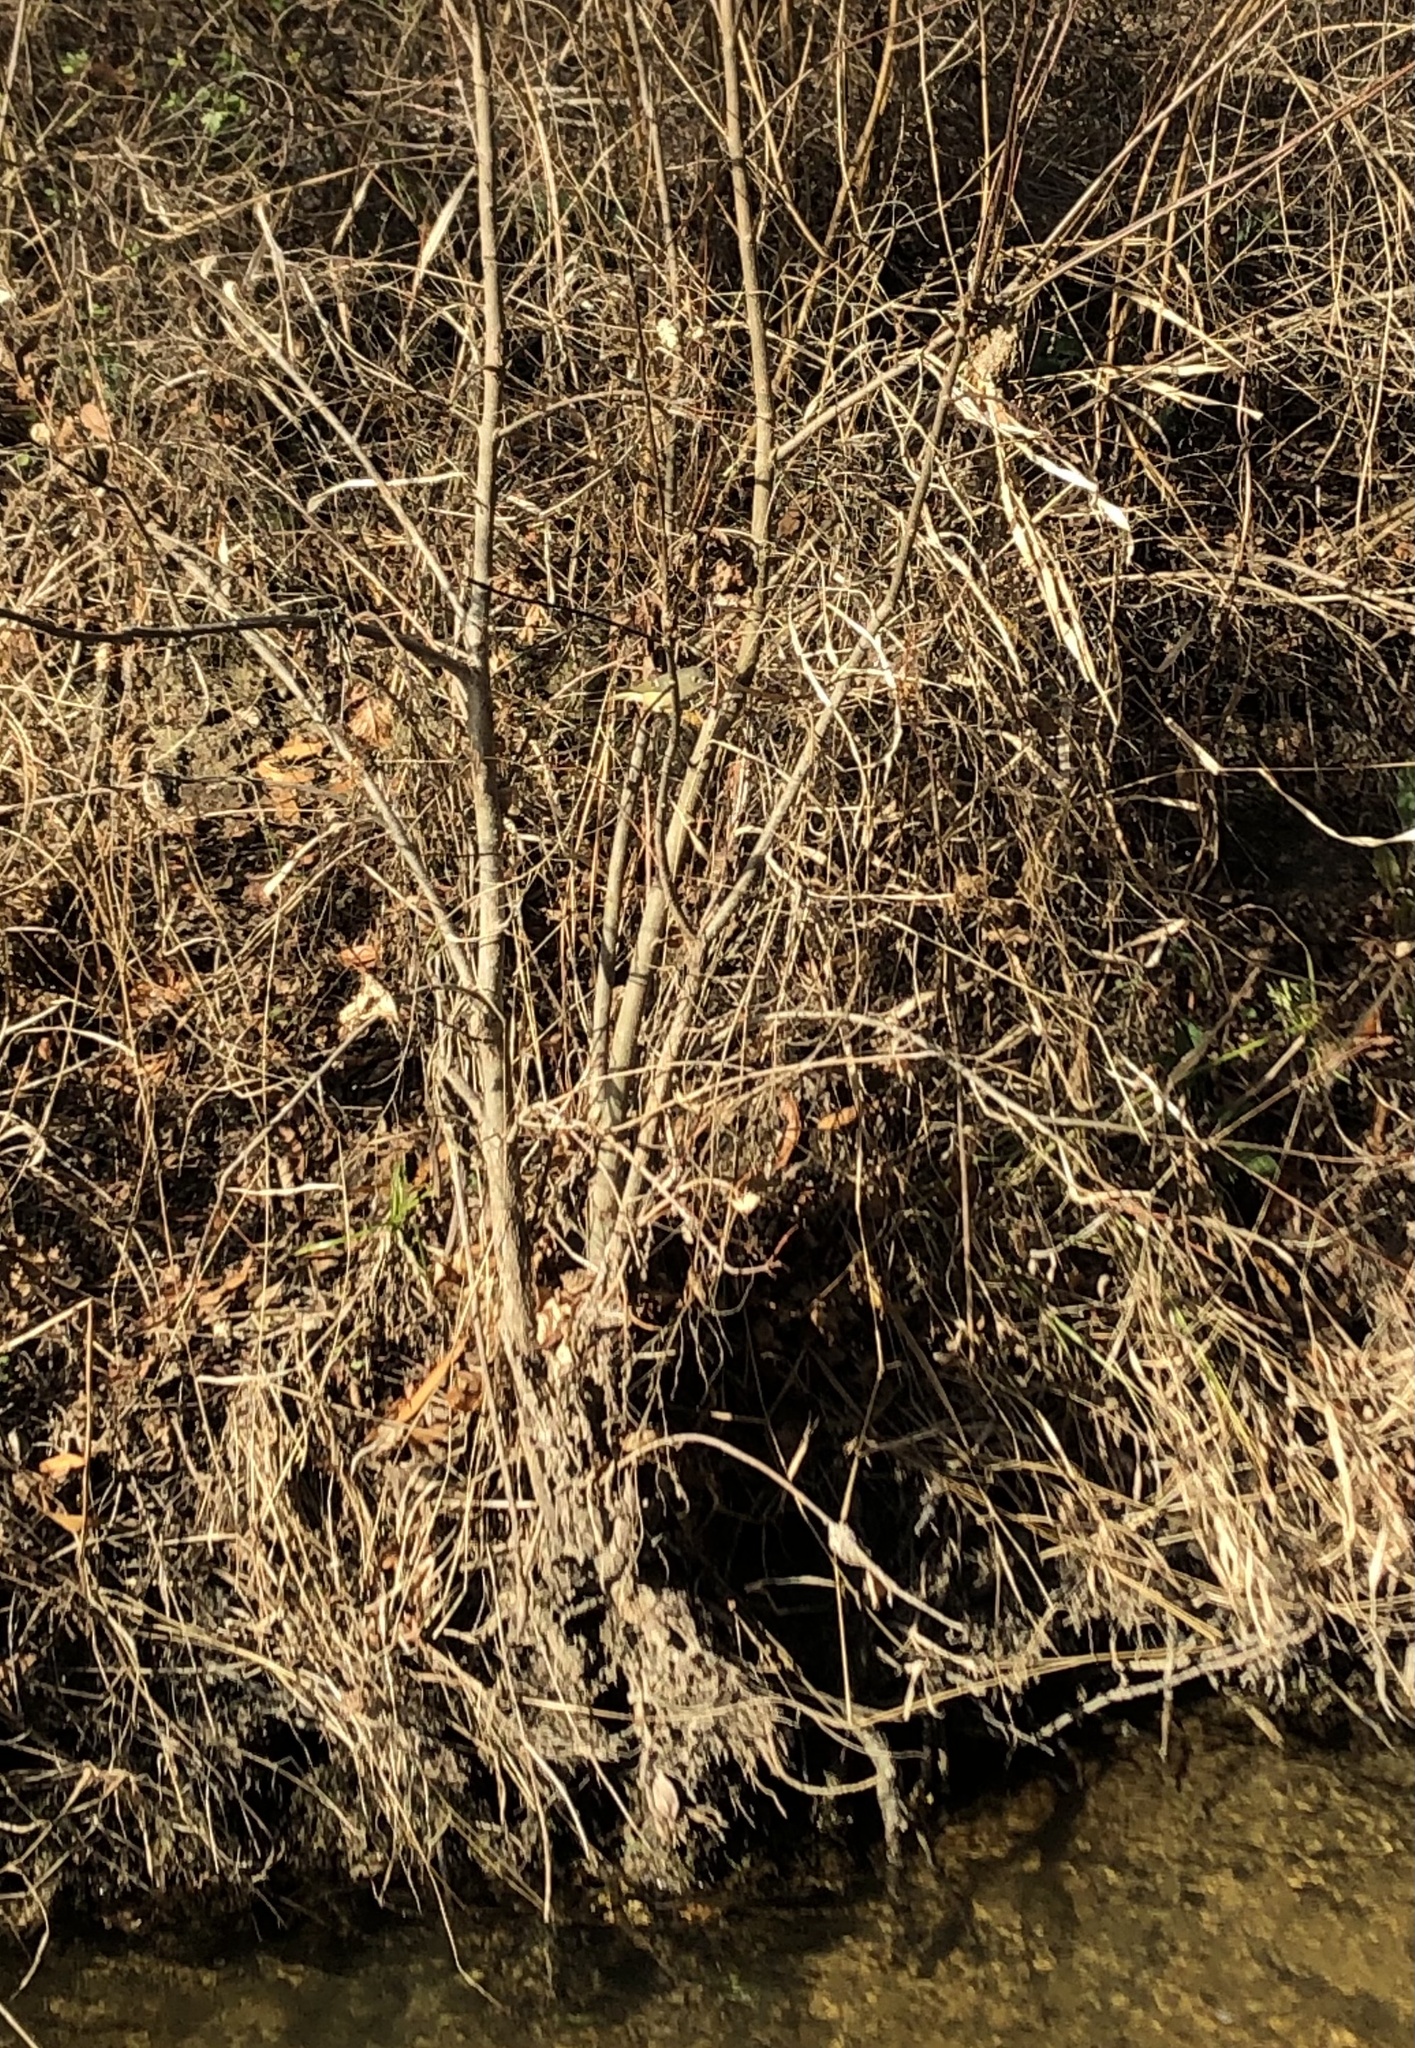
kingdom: Animalia
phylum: Chordata
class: Aves
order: Passeriformes
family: Regulidae
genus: Regulus
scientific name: Regulus calendula
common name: Ruby-crowned kinglet
